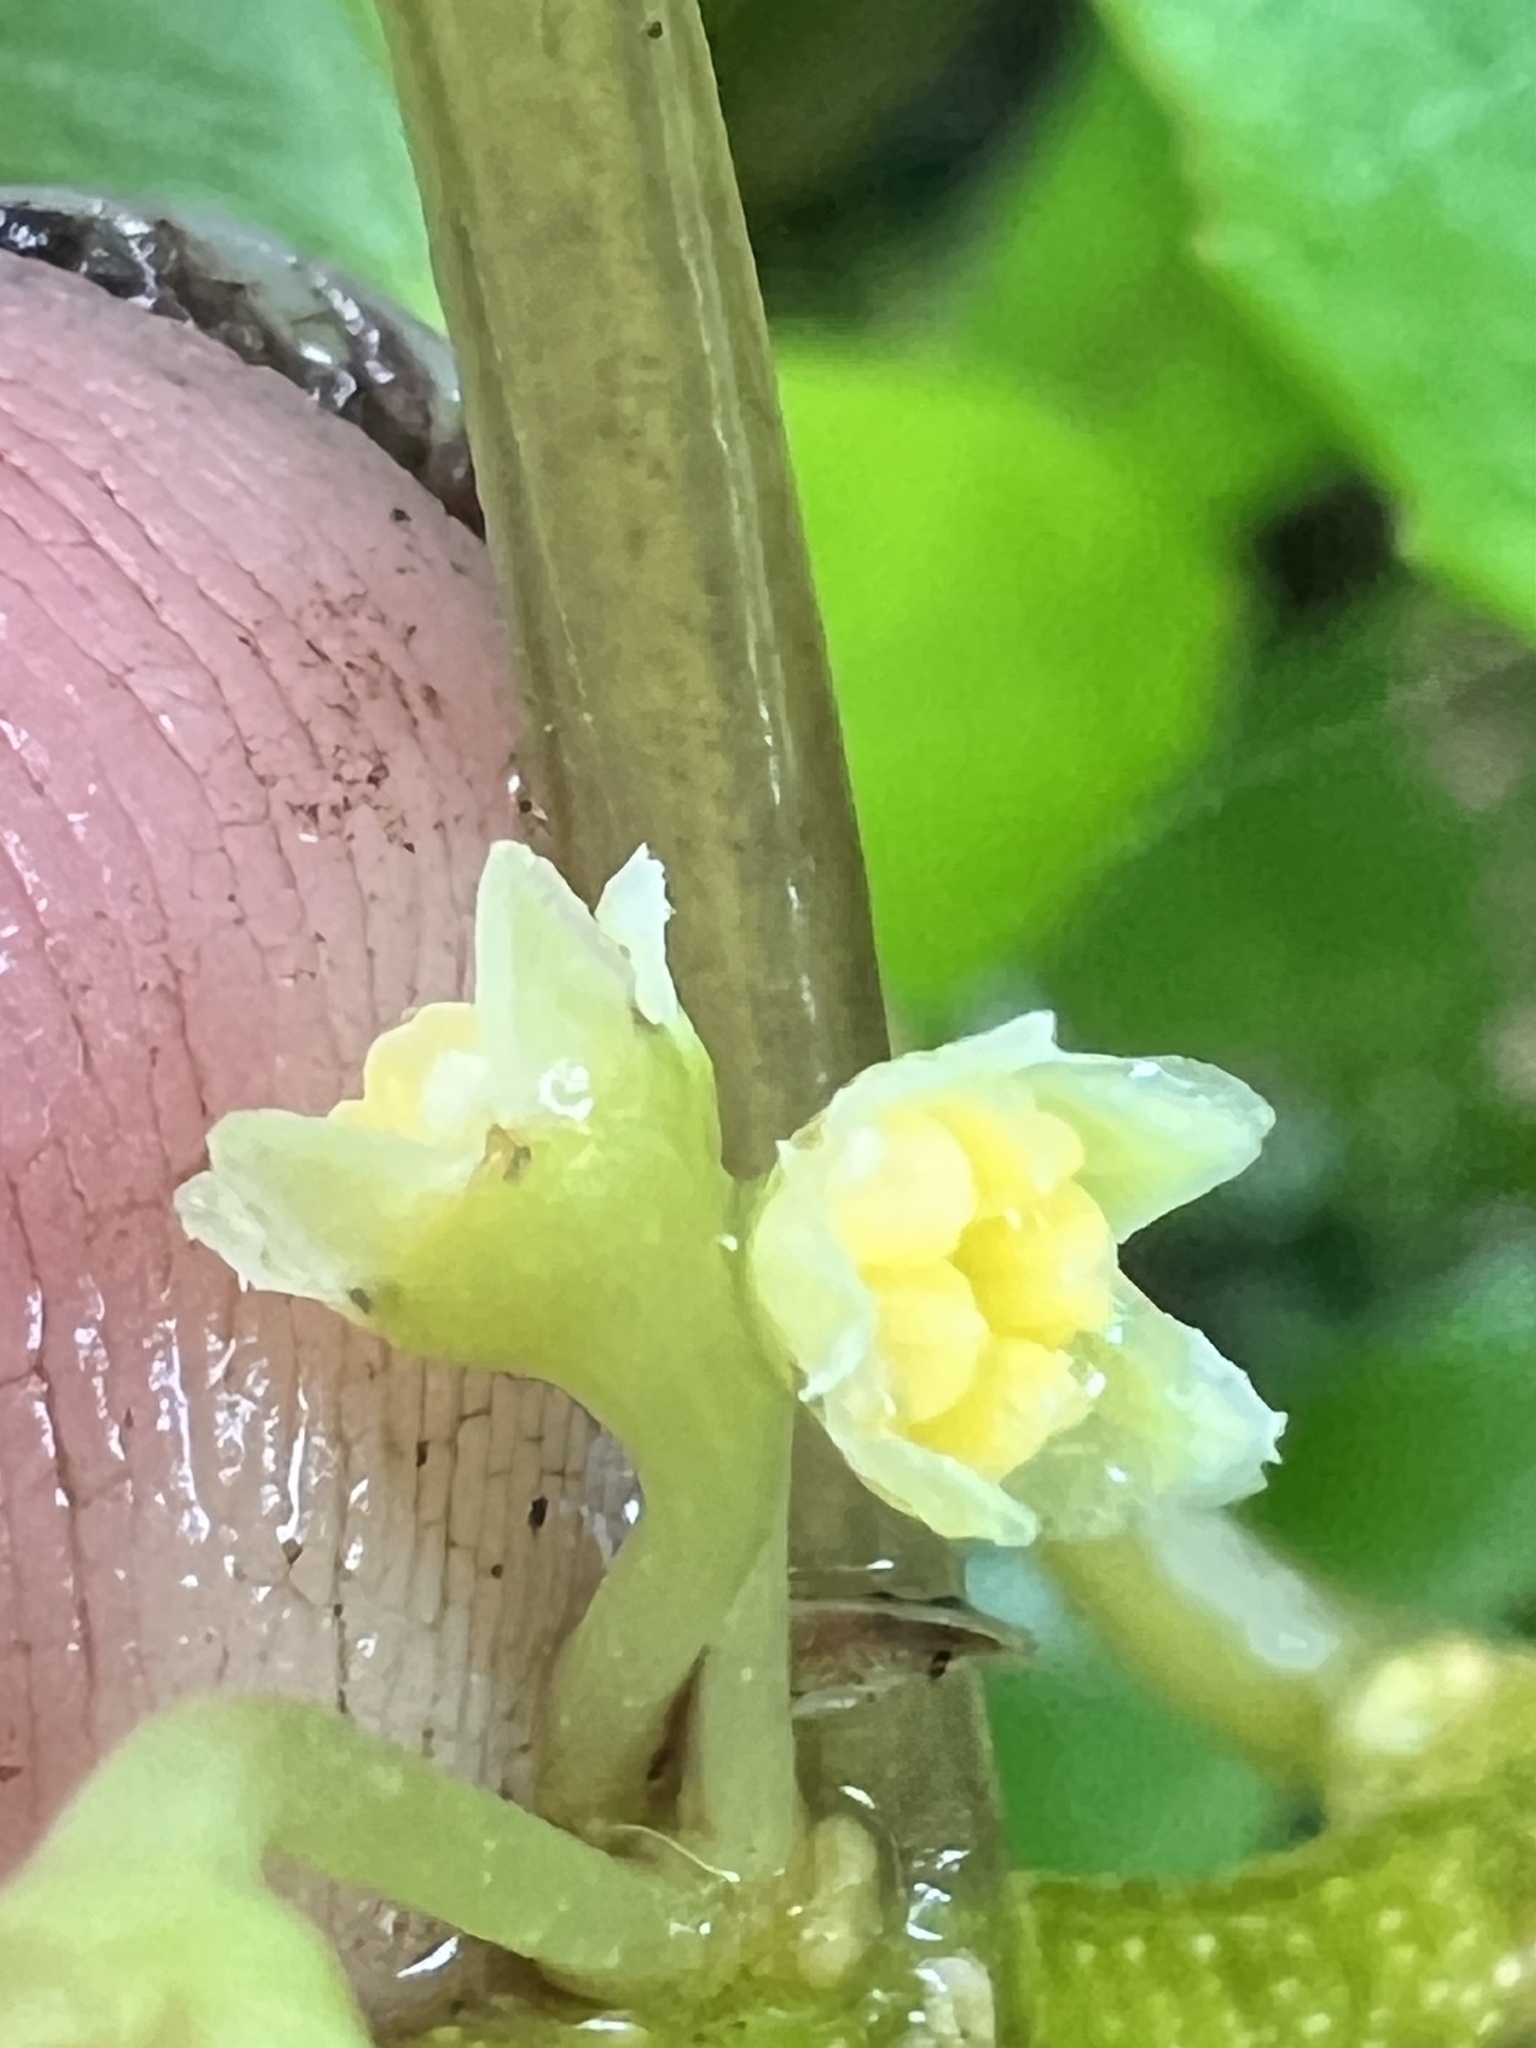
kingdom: Plantae
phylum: Tracheophyta
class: Magnoliopsida
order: Malpighiales
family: Violaceae
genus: Melicytus
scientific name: Melicytus ramiflorus
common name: Mahoe
